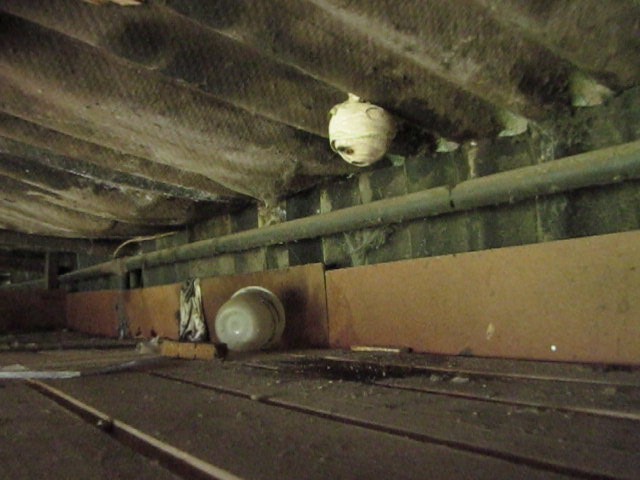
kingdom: Animalia
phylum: Arthropoda
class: Insecta
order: Hymenoptera
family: Vespidae
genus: Vespa
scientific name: Vespa velutina
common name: Asian hornet
